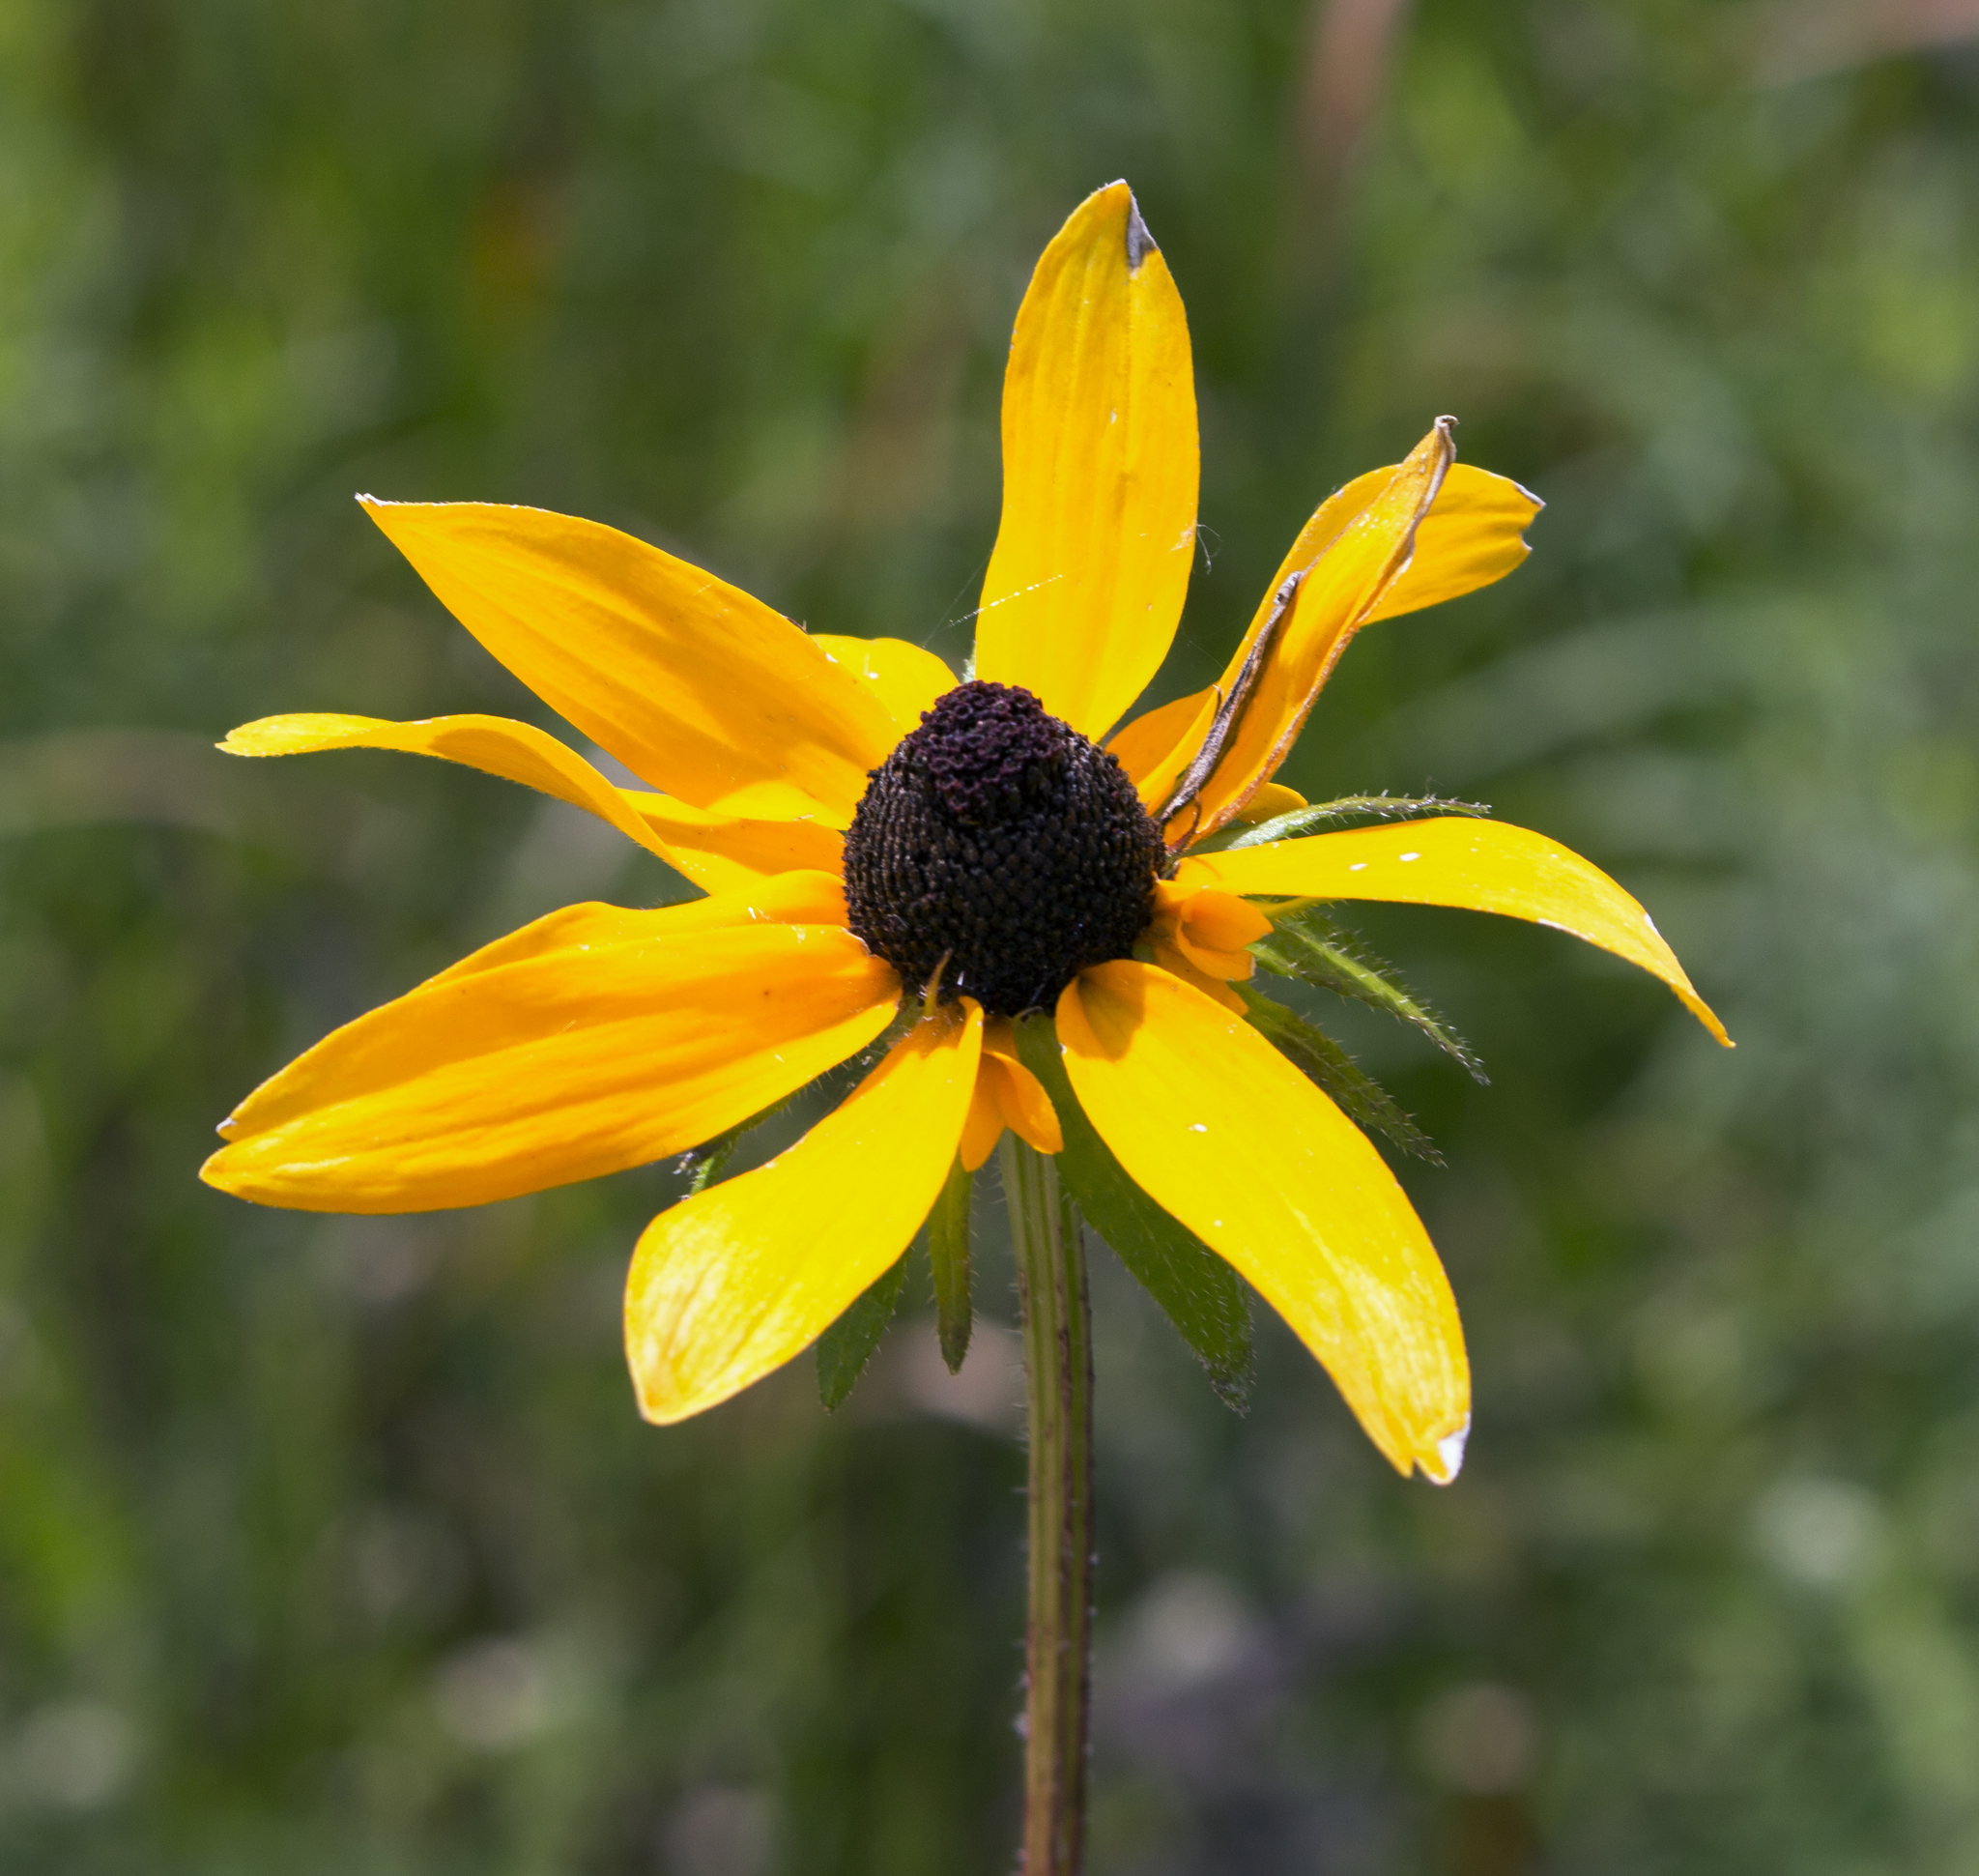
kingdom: Plantae
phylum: Tracheophyta
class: Magnoliopsida
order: Asterales
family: Asteraceae
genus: Rudbeckia
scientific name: Rudbeckia hirta
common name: Black-eyed-susan
